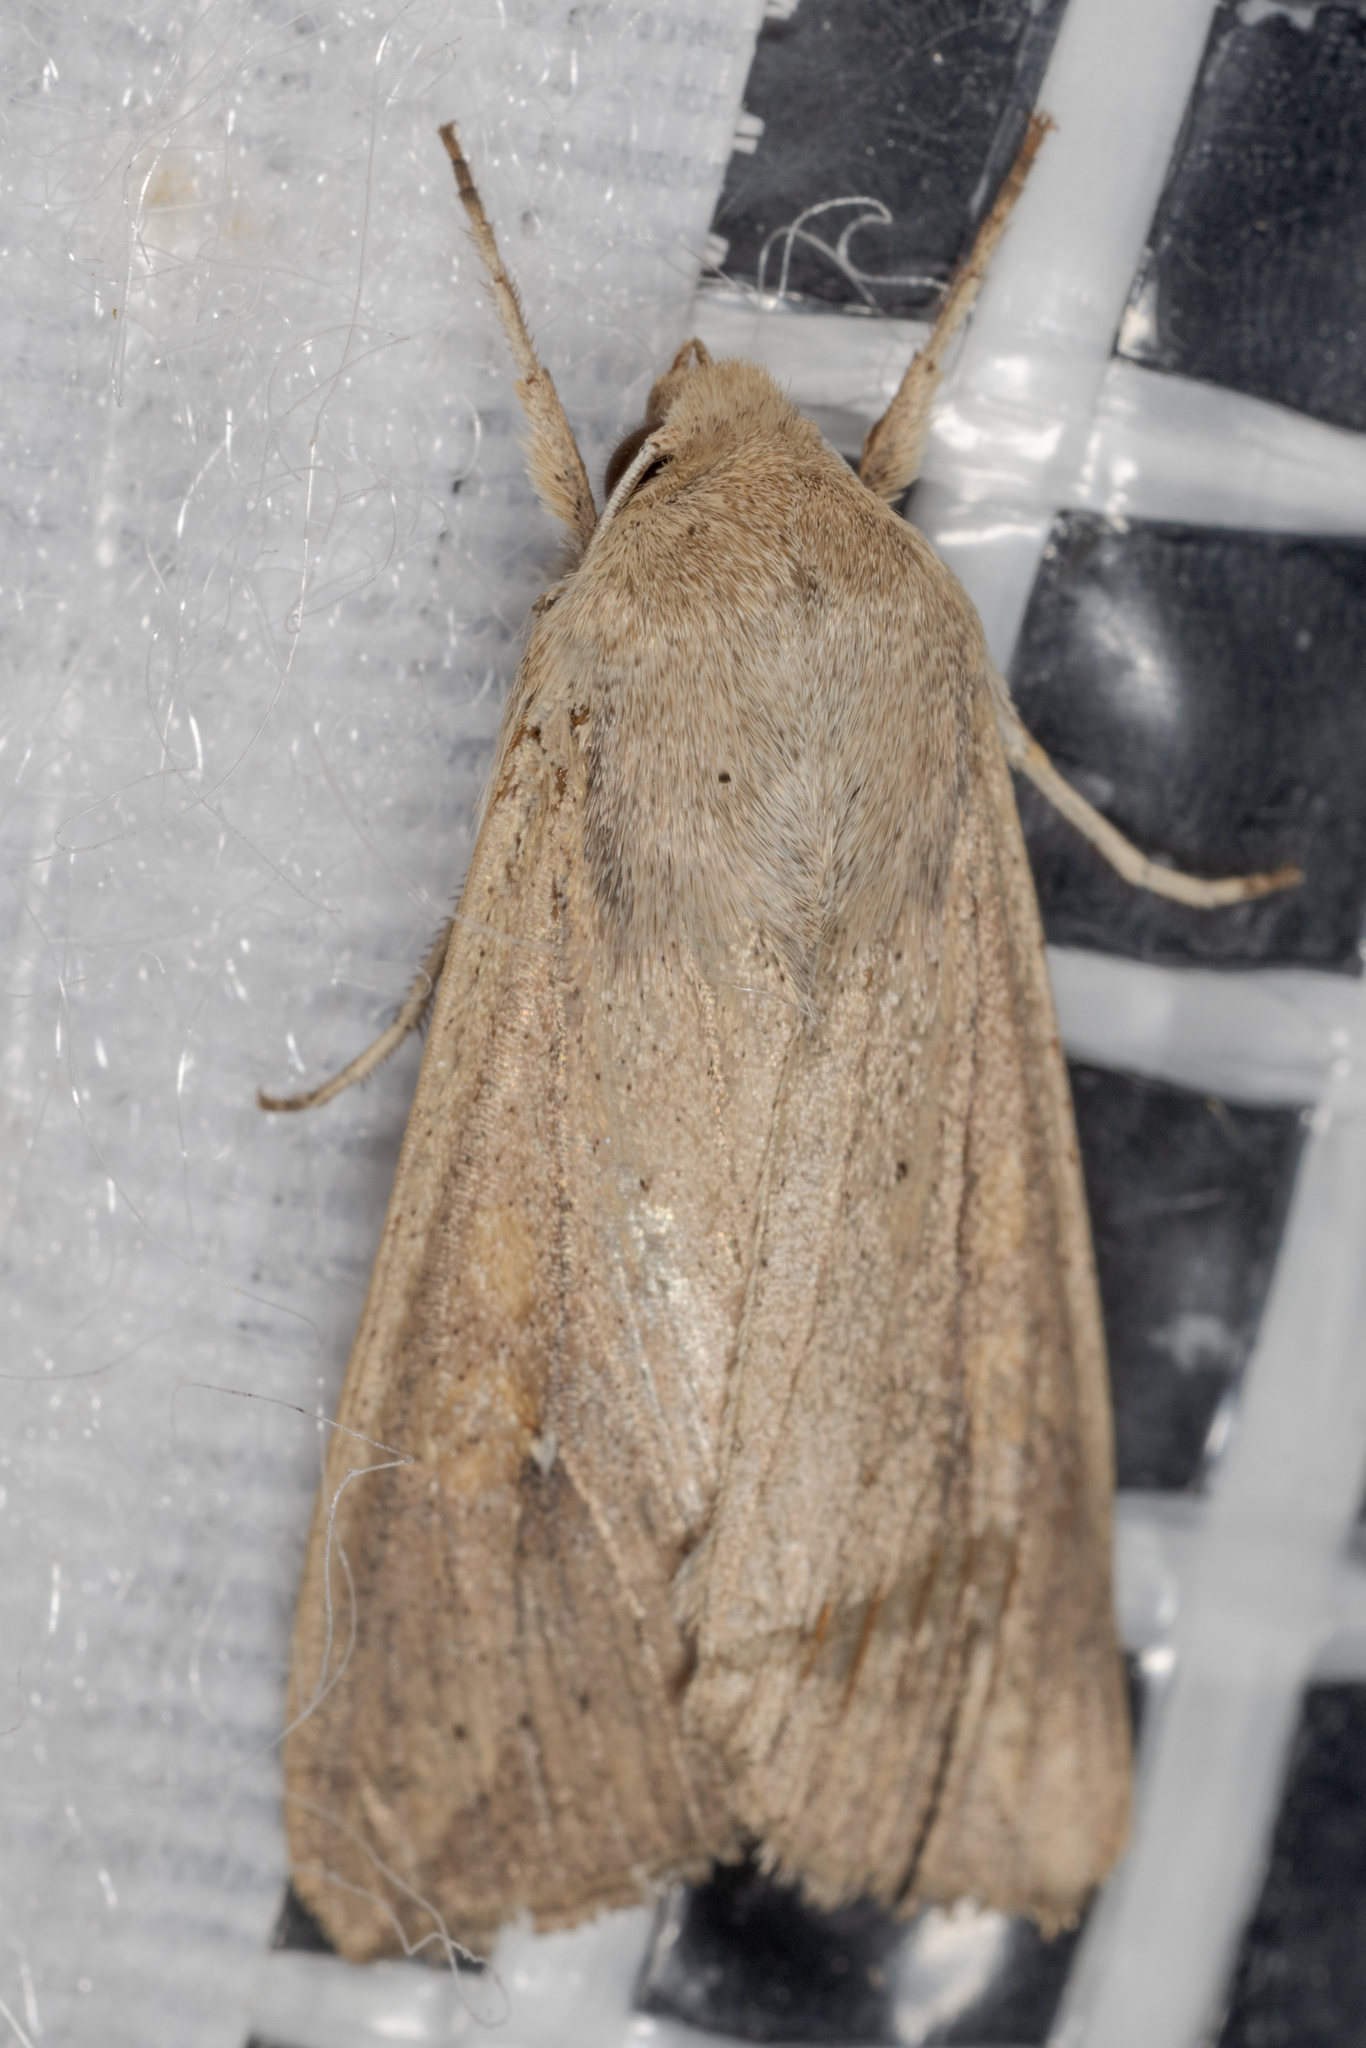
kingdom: Animalia
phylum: Arthropoda
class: Insecta
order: Lepidoptera
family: Noctuidae
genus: Mythimna
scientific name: Mythimna unipuncta
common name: White-speck
